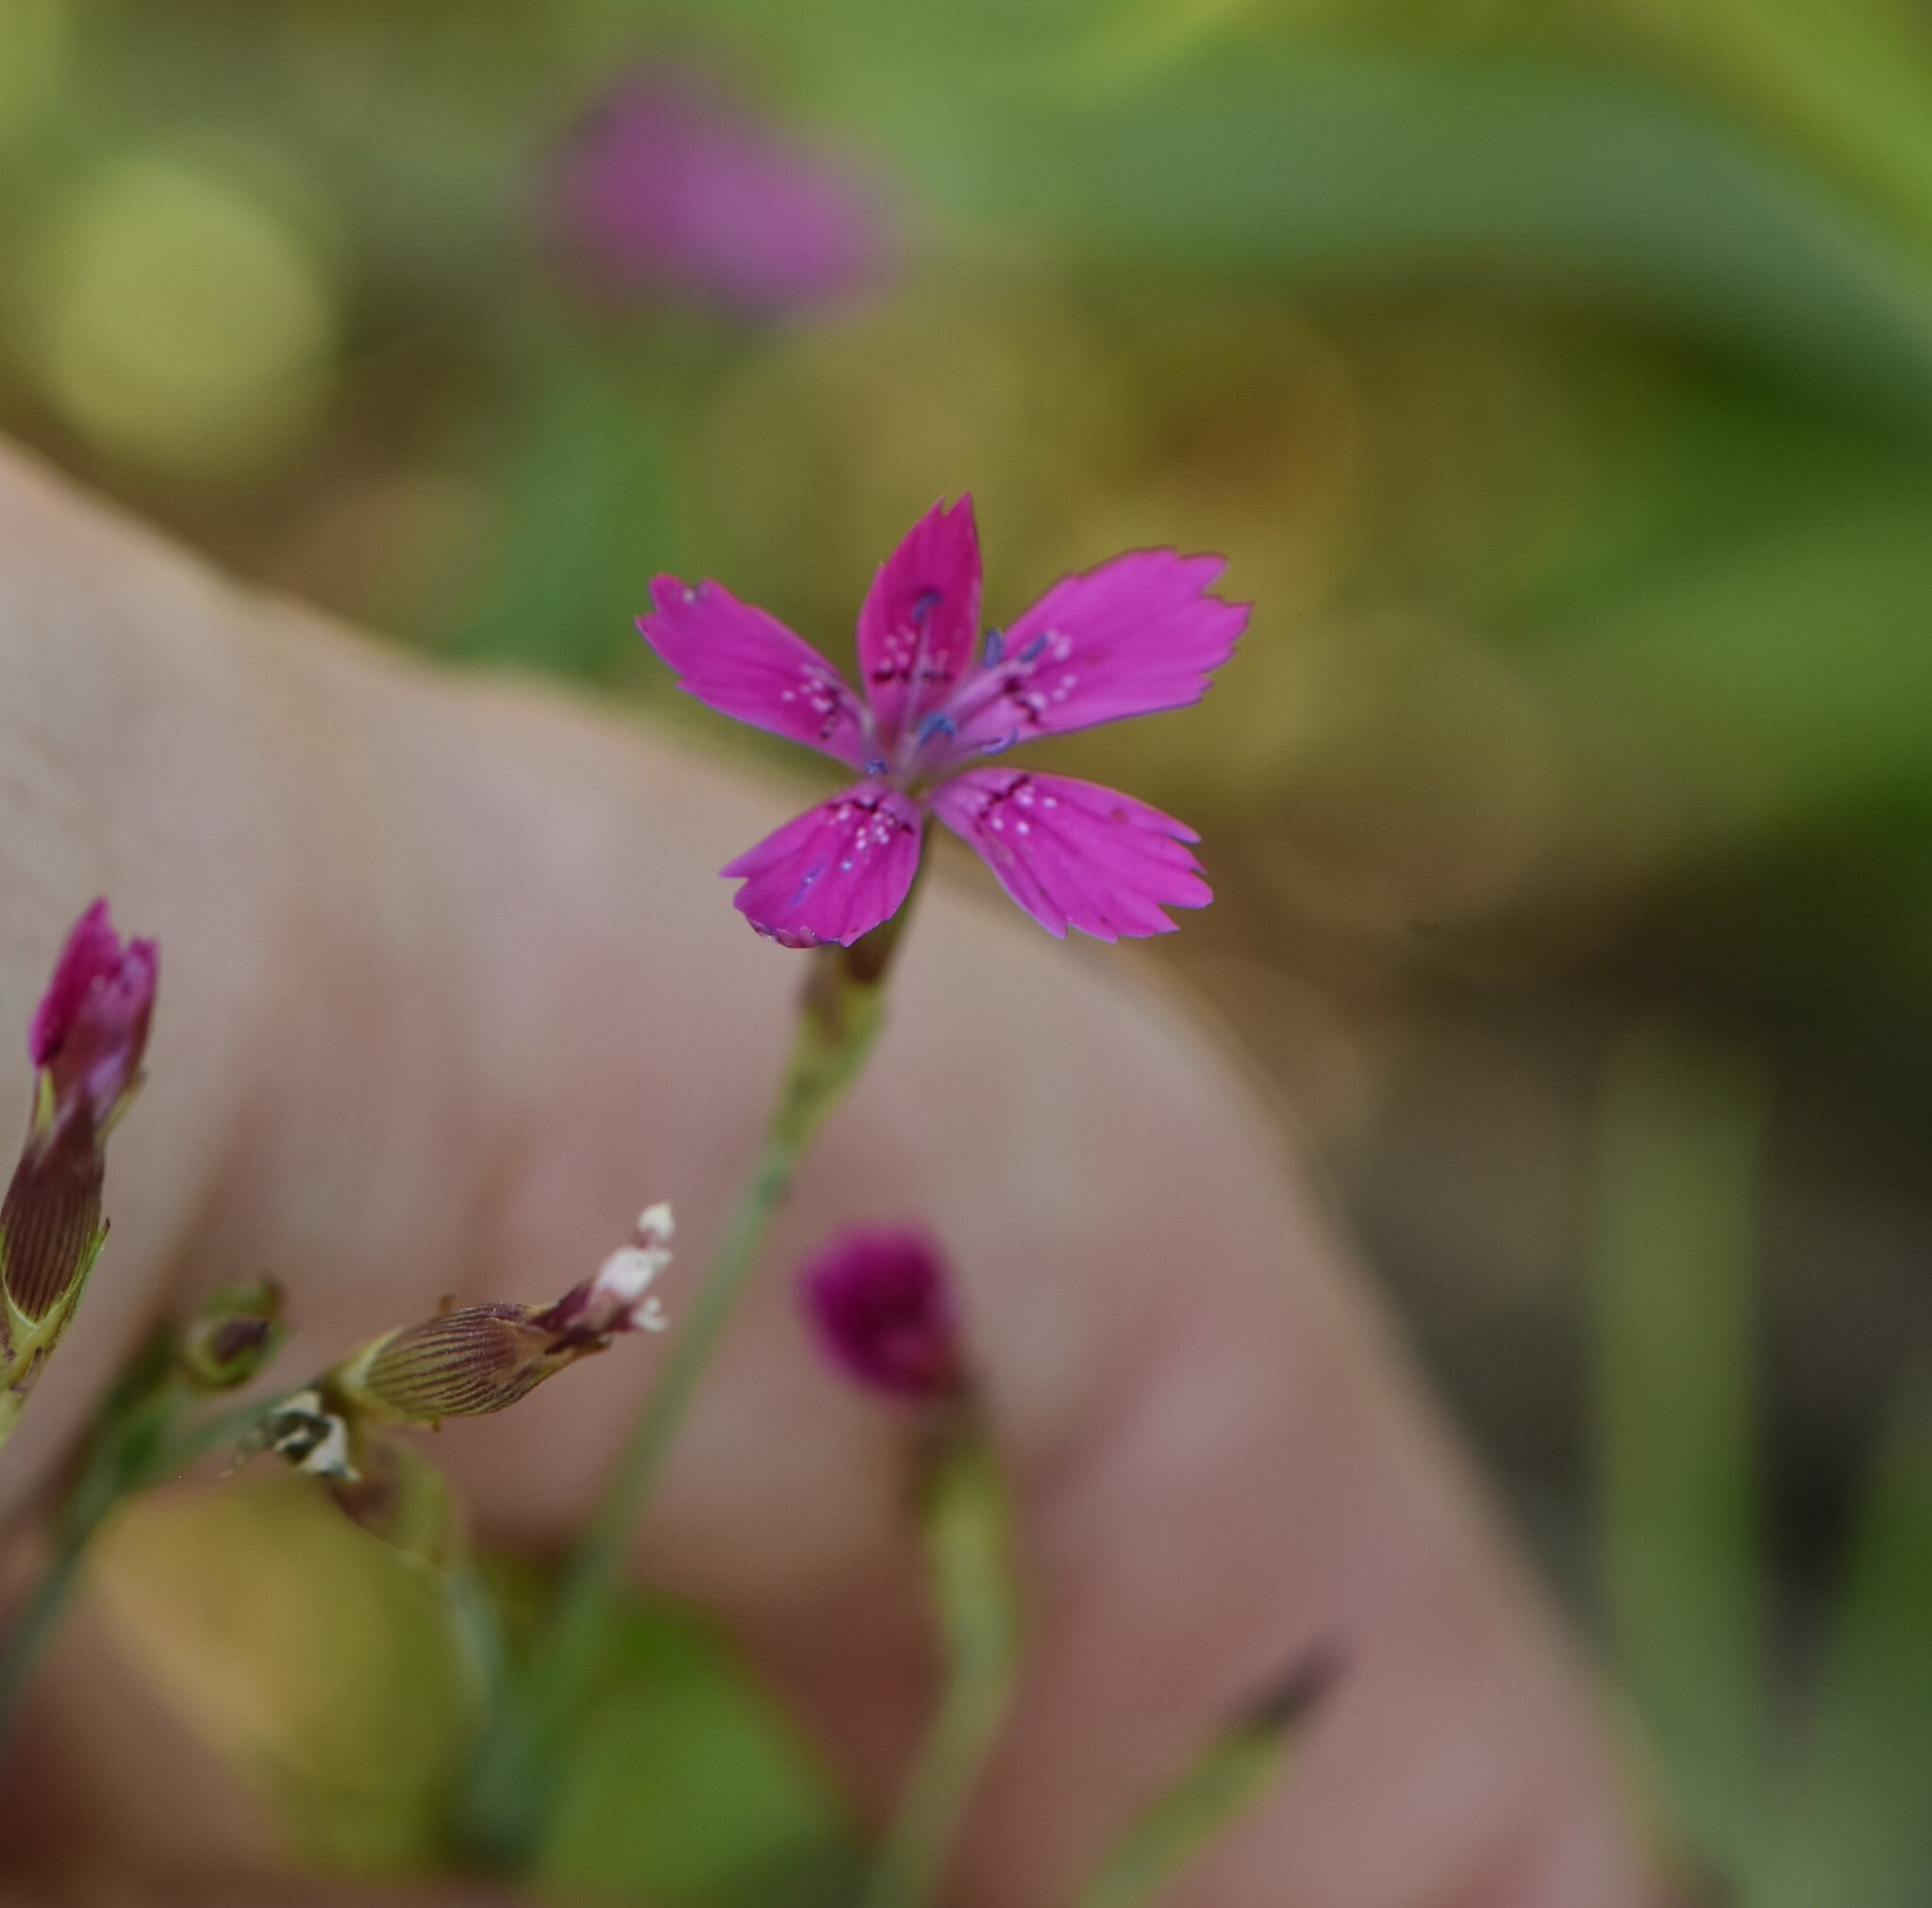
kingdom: Plantae
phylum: Tracheophyta
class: Magnoliopsida
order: Caryophyllales
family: Caryophyllaceae
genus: Dianthus
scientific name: Dianthus deltoides
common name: Maiden pink
